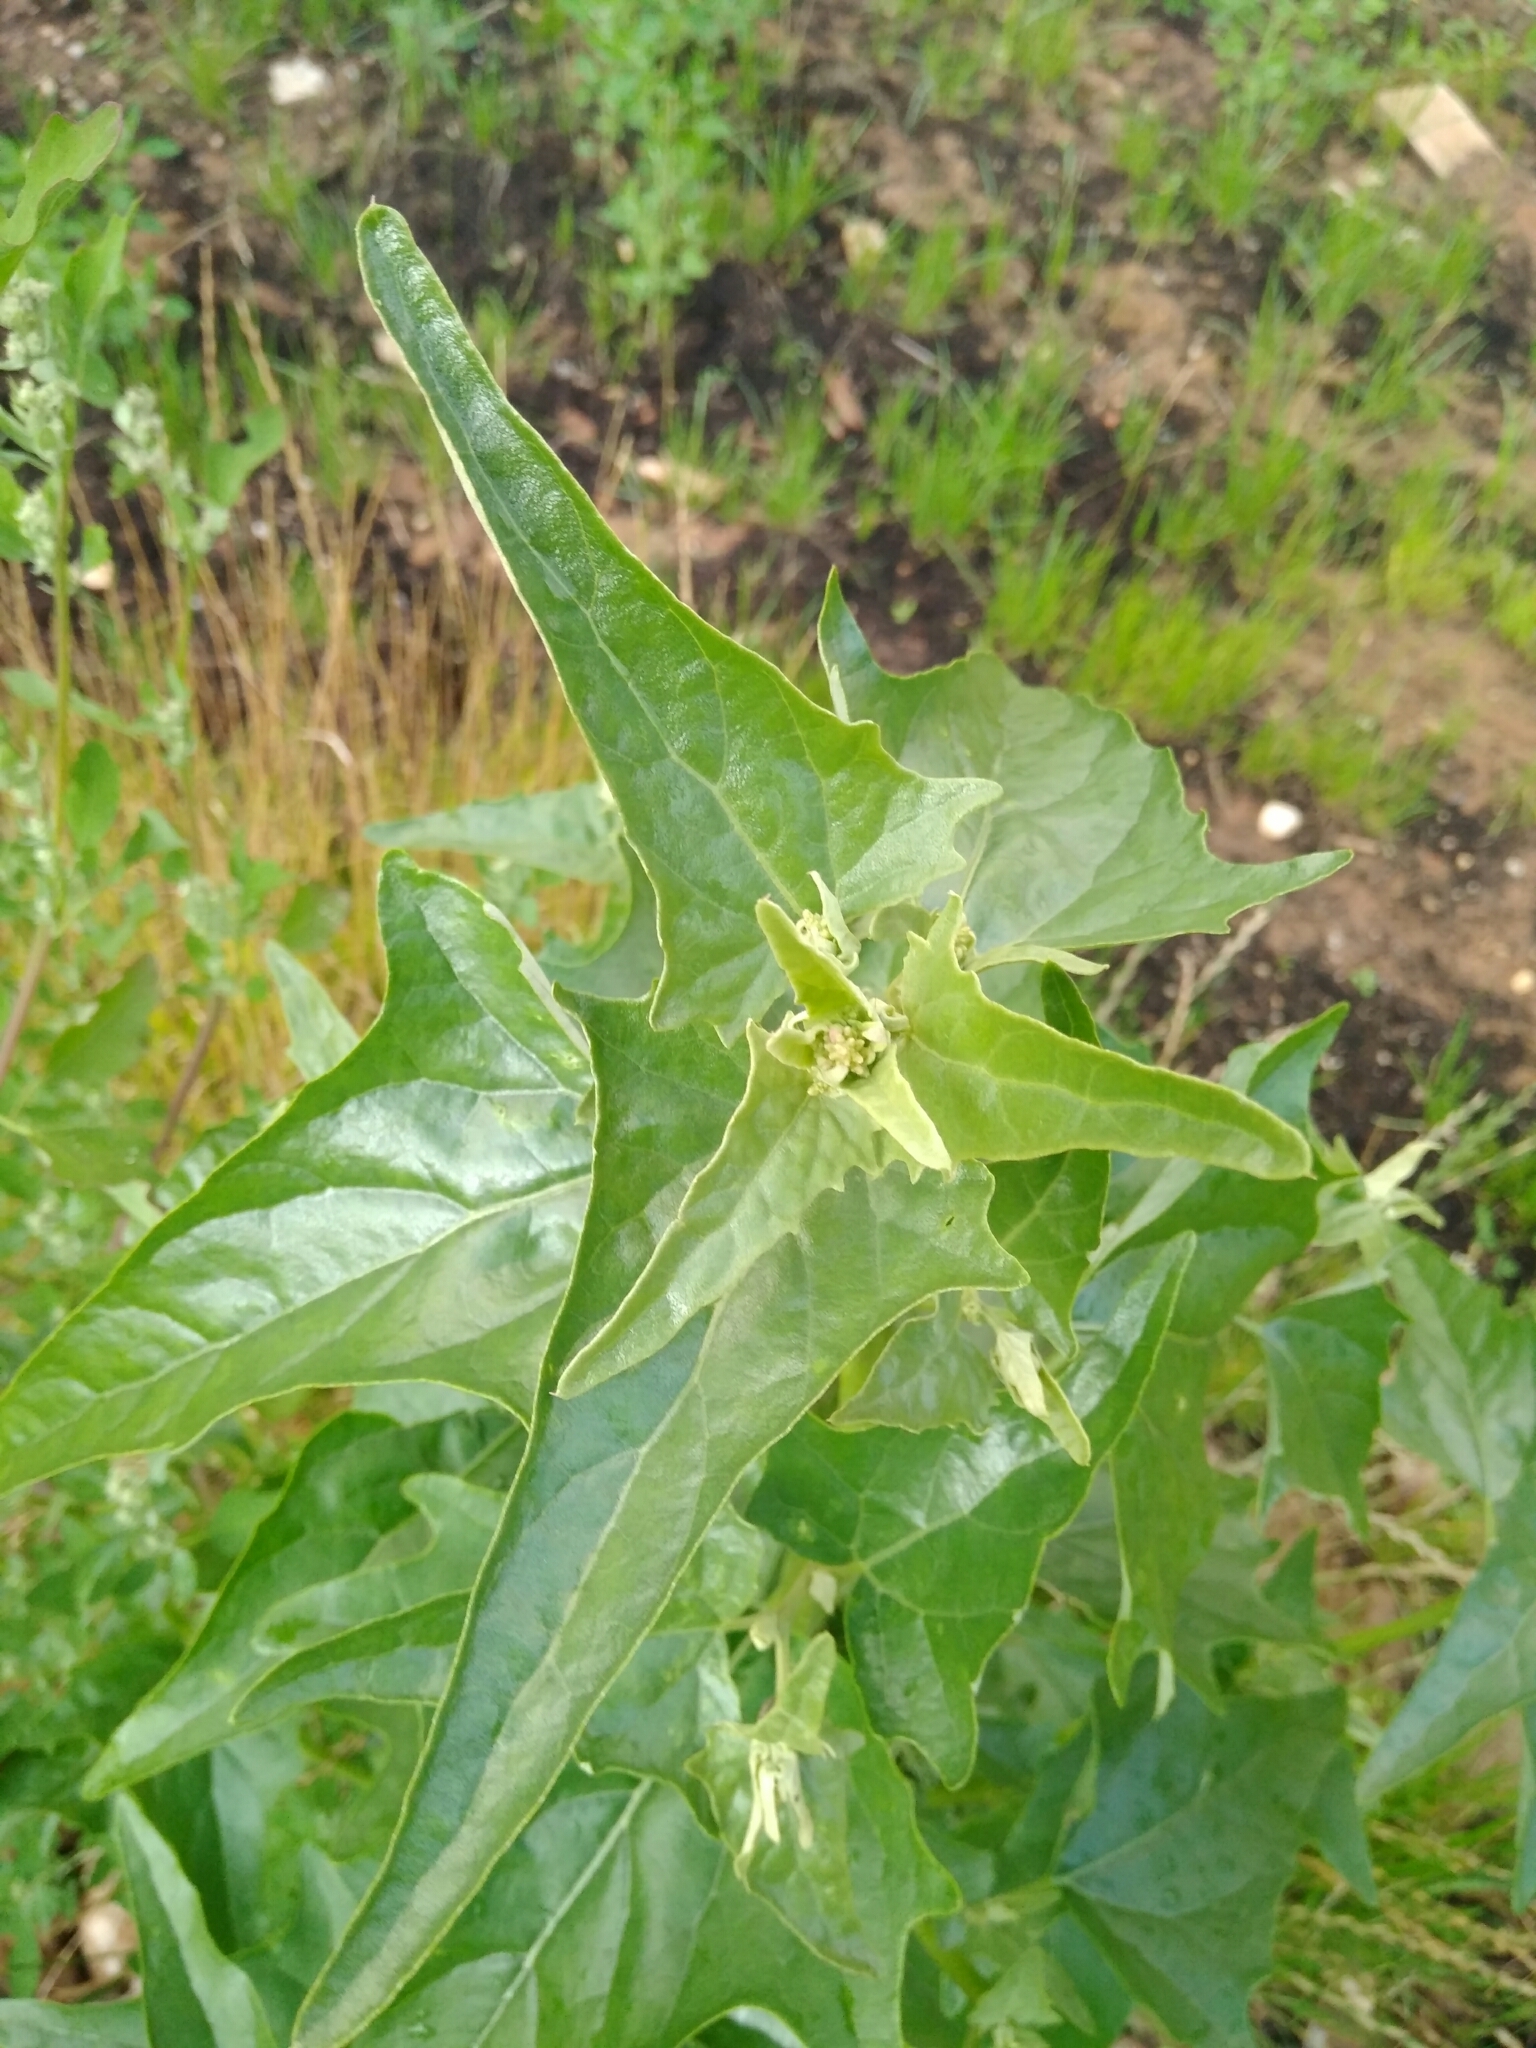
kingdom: Plantae
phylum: Tracheophyta
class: Magnoliopsida
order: Caryophyllales
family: Amaranthaceae
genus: Atriplex
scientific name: Atriplex sagittata
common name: Purple orache
